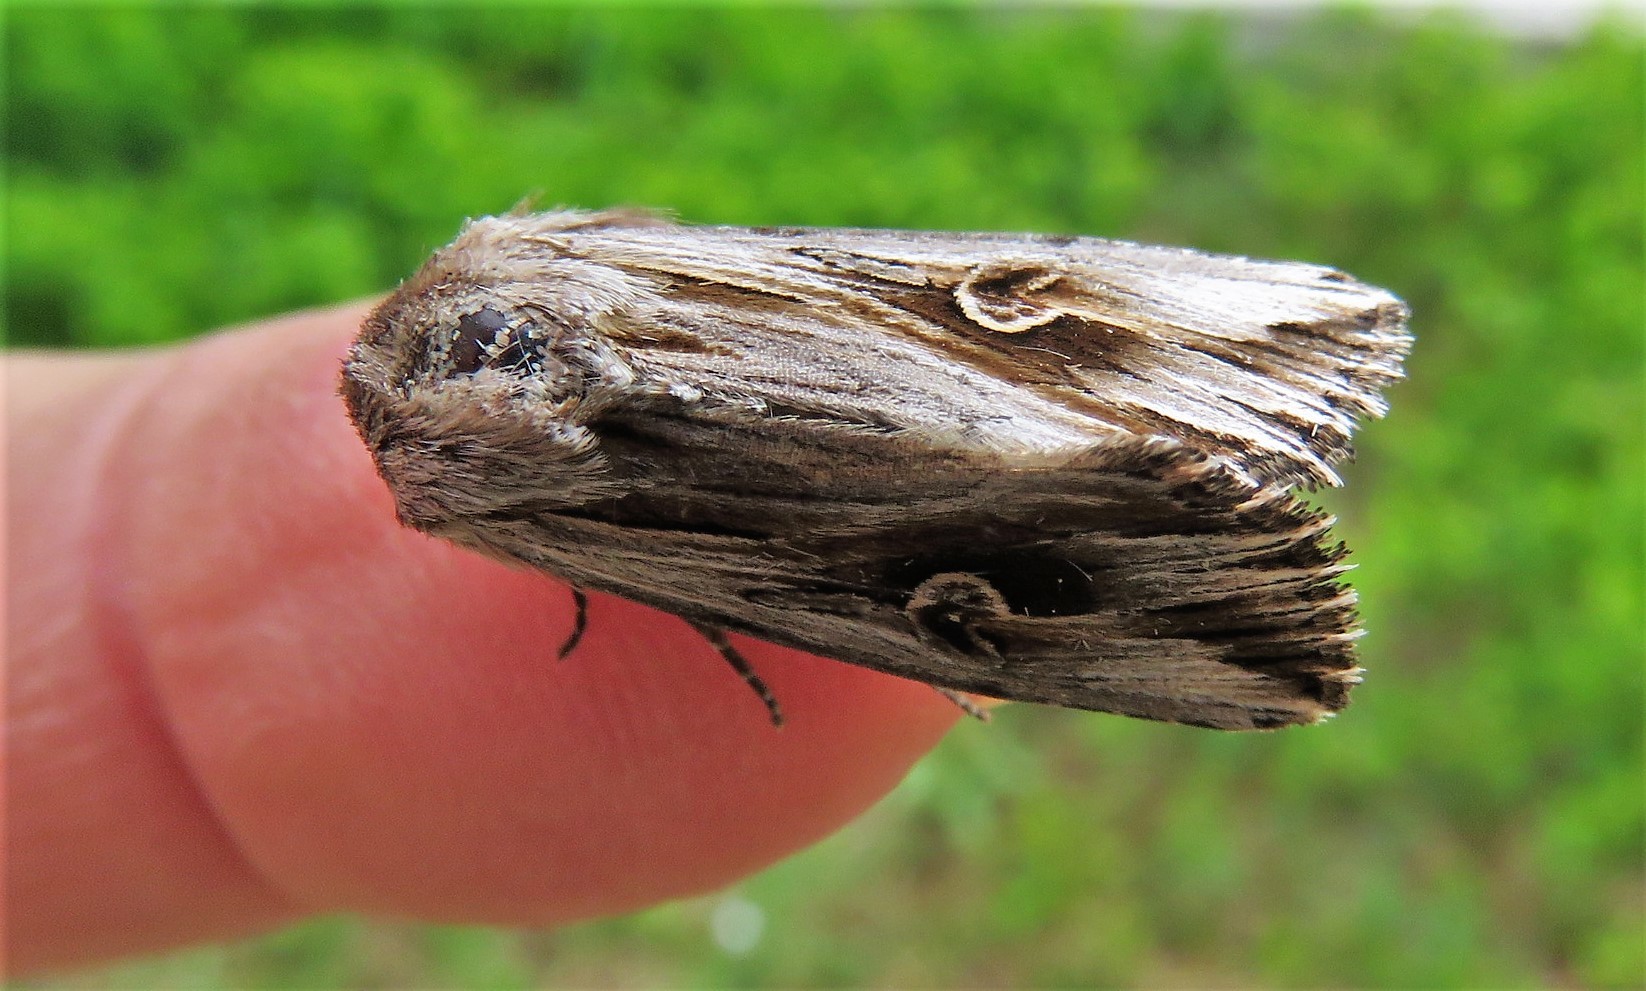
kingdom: Animalia
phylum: Arthropoda
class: Insecta
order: Lepidoptera
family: Noctuidae
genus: Nedra
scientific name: Nedra ramosula
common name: Gray half-spot
